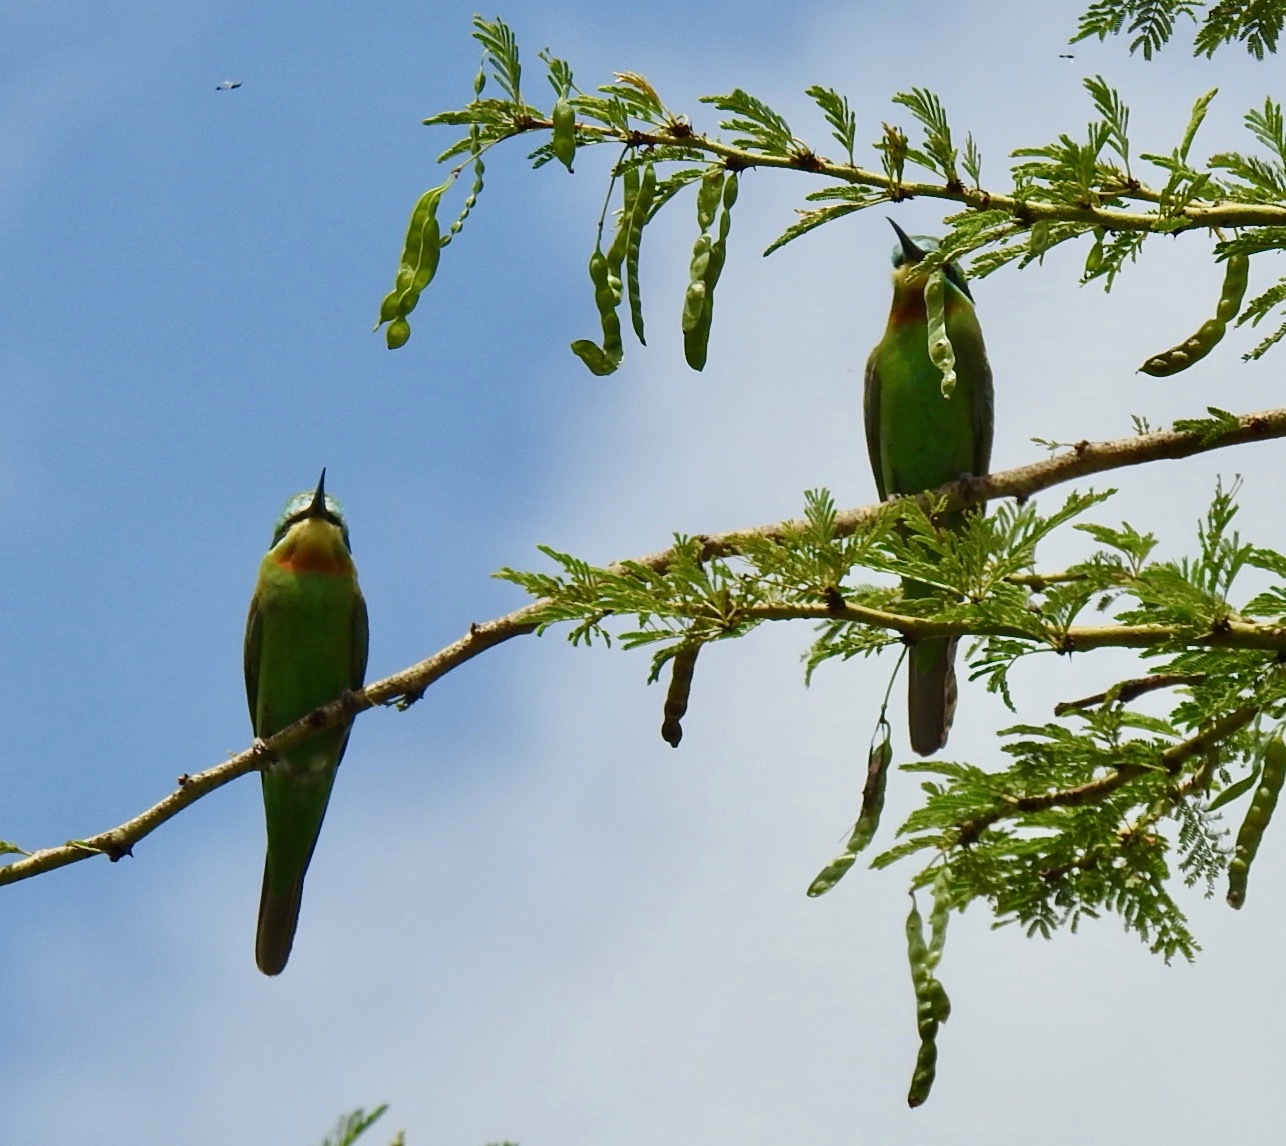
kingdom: Animalia
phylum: Chordata
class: Aves
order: Coraciiformes
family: Meropidae
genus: Merops
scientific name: Merops persicus
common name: Blue-cheeked bee-eater
